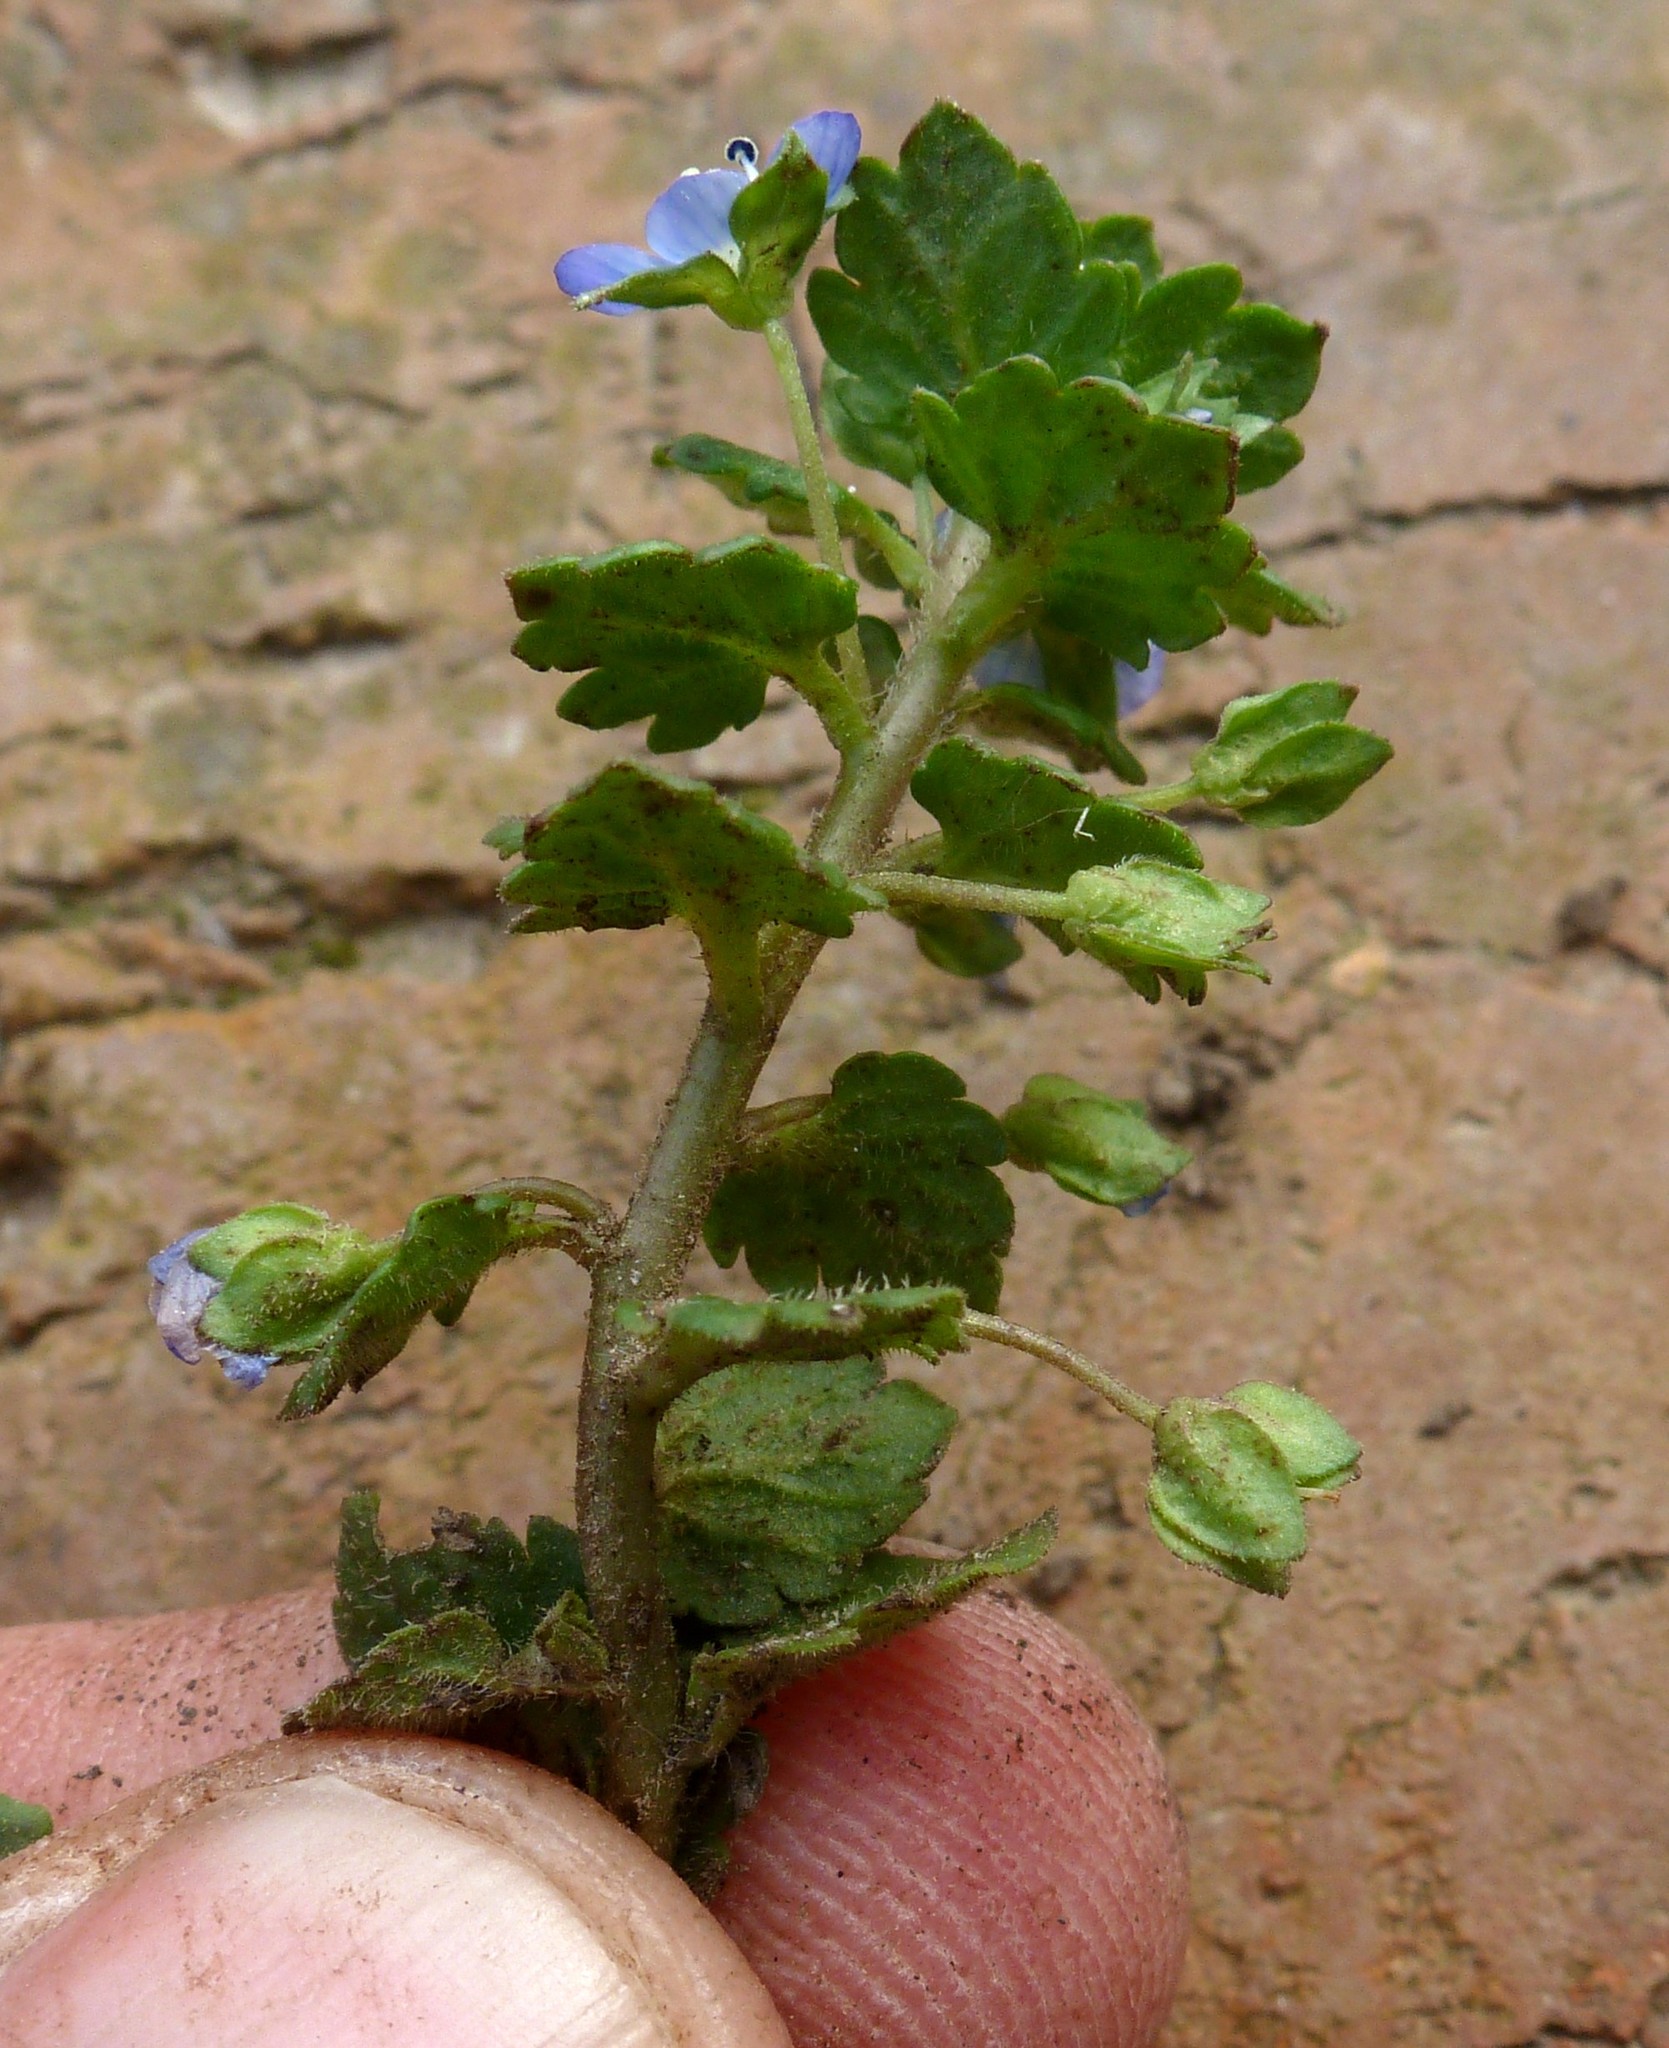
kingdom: Plantae
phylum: Tracheophyta
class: Magnoliopsida
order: Lamiales
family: Plantaginaceae
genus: Veronica
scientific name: Veronica polita
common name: Grey field-speedwell
